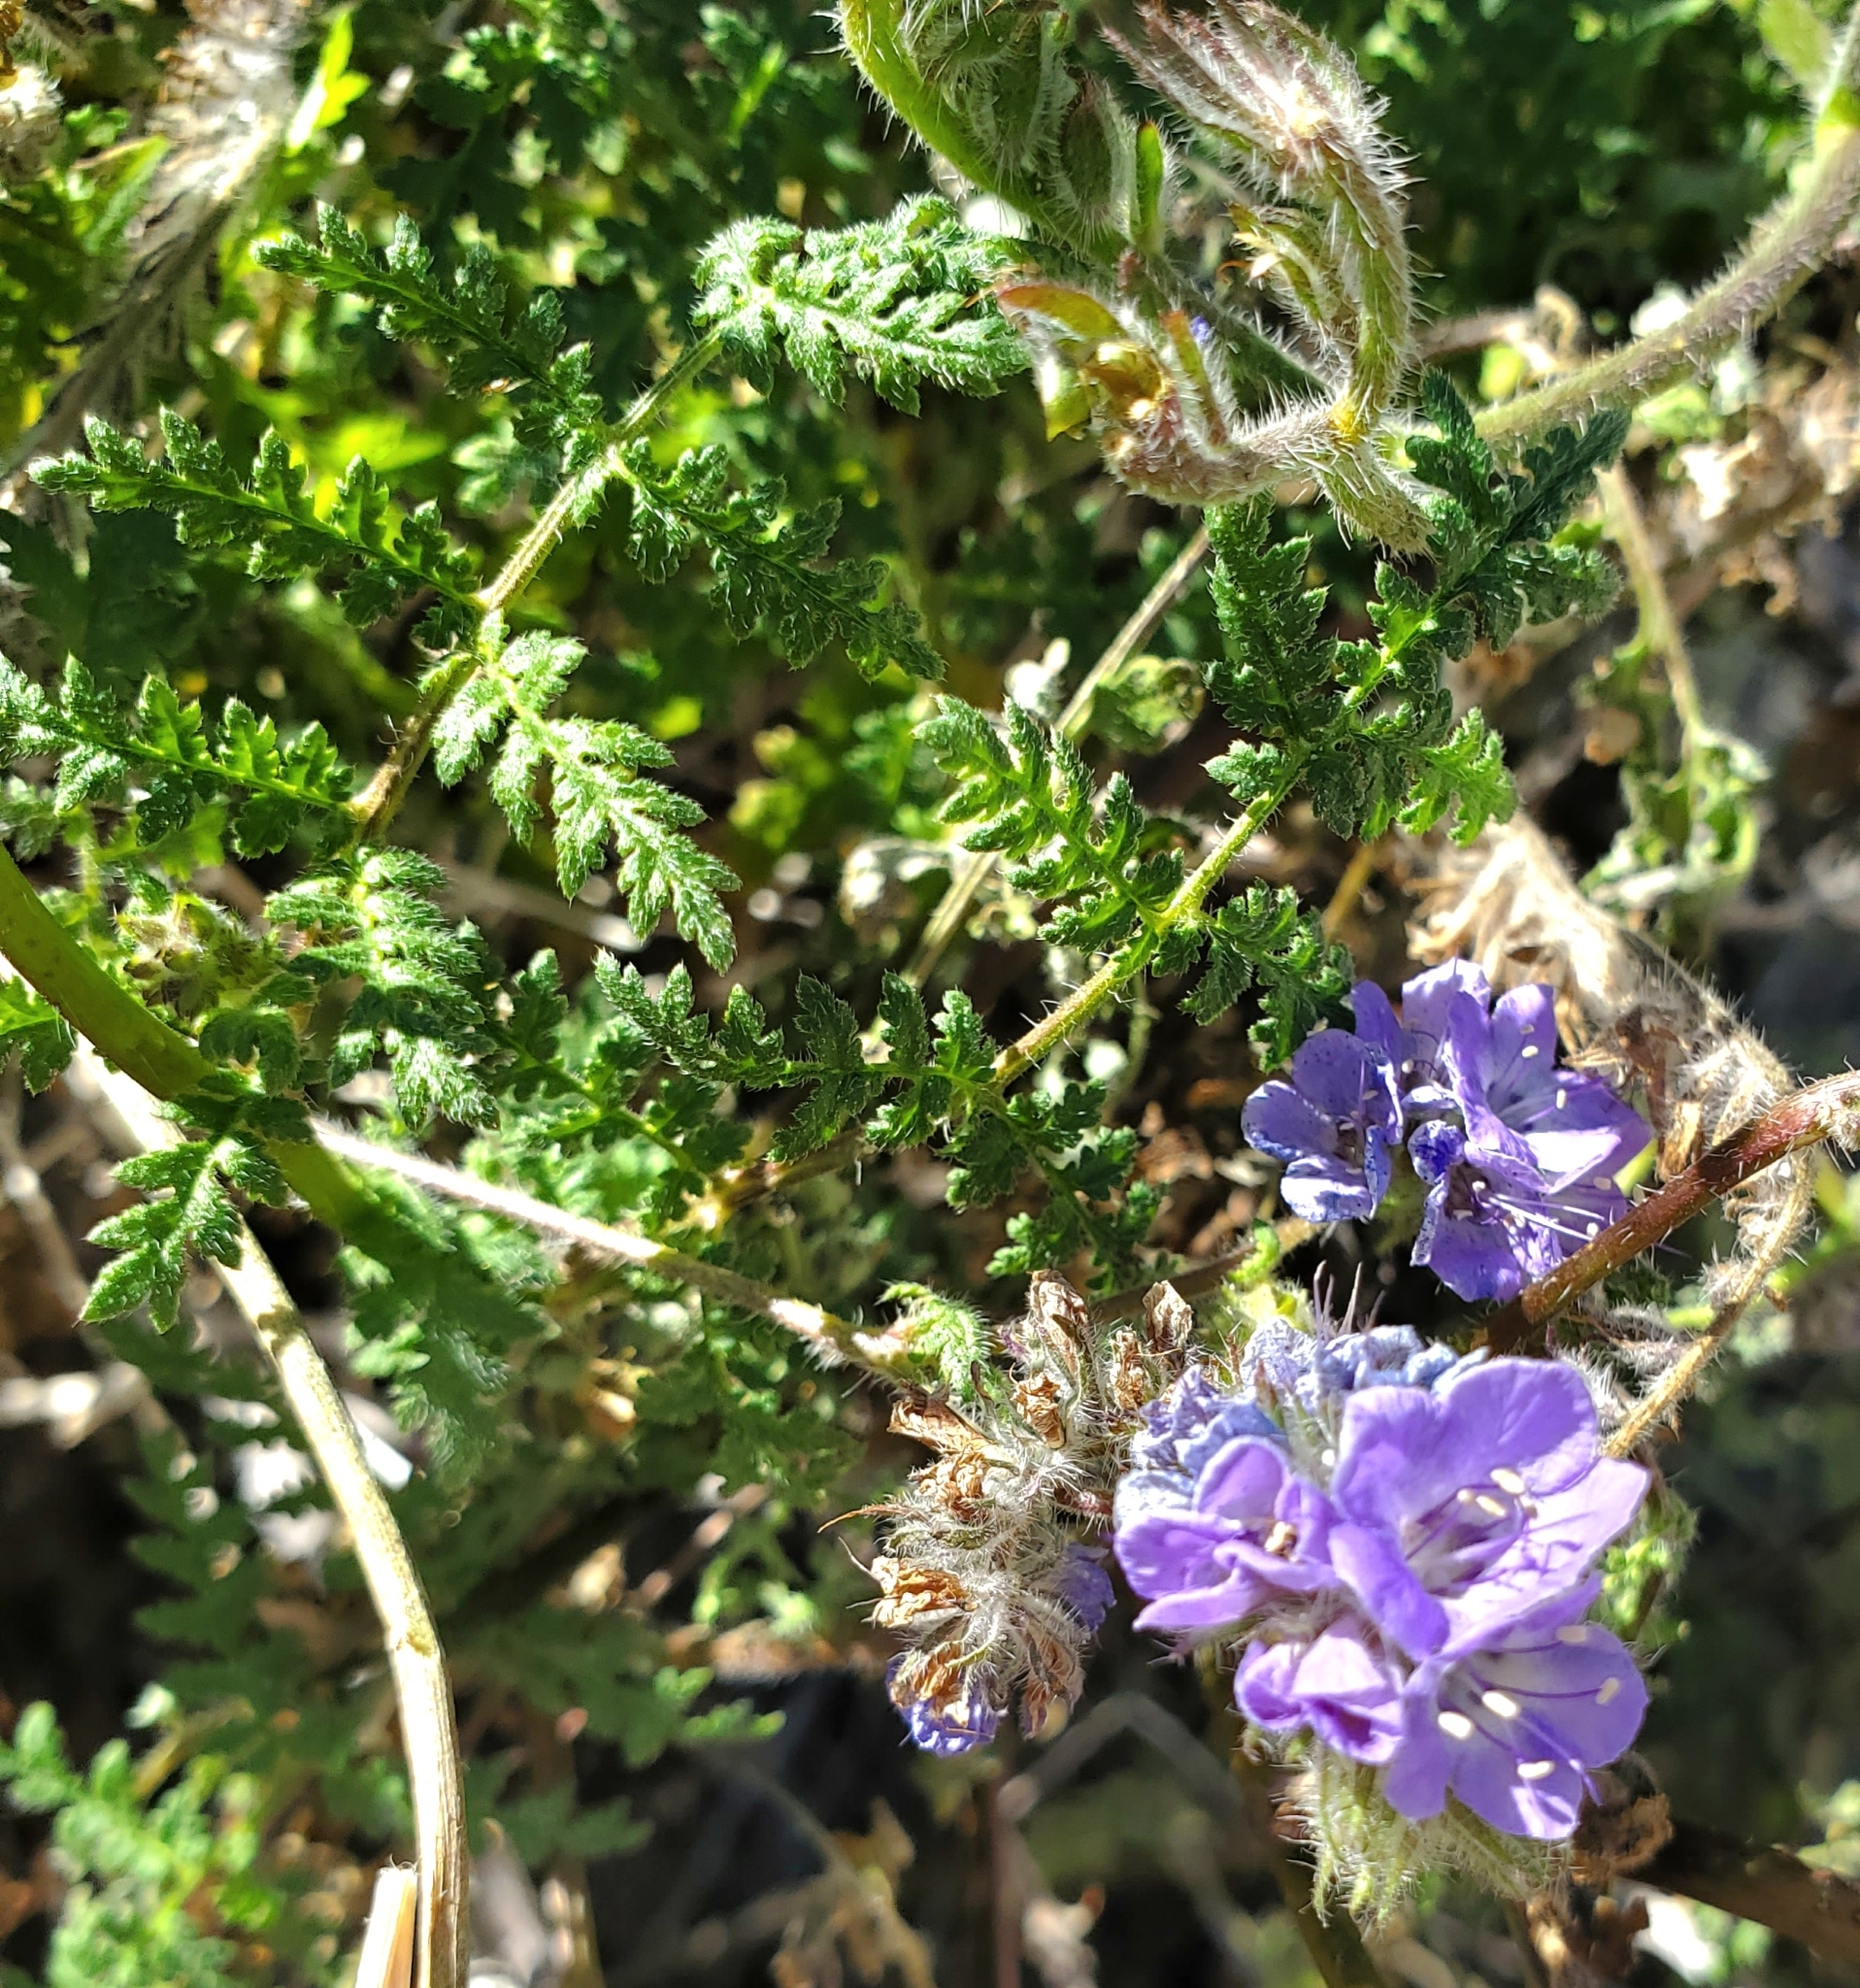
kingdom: Plantae
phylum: Tracheophyta
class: Magnoliopsida
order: Boraginales
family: Hydrophyllaceae
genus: Phacelia
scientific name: Phacelia distans
